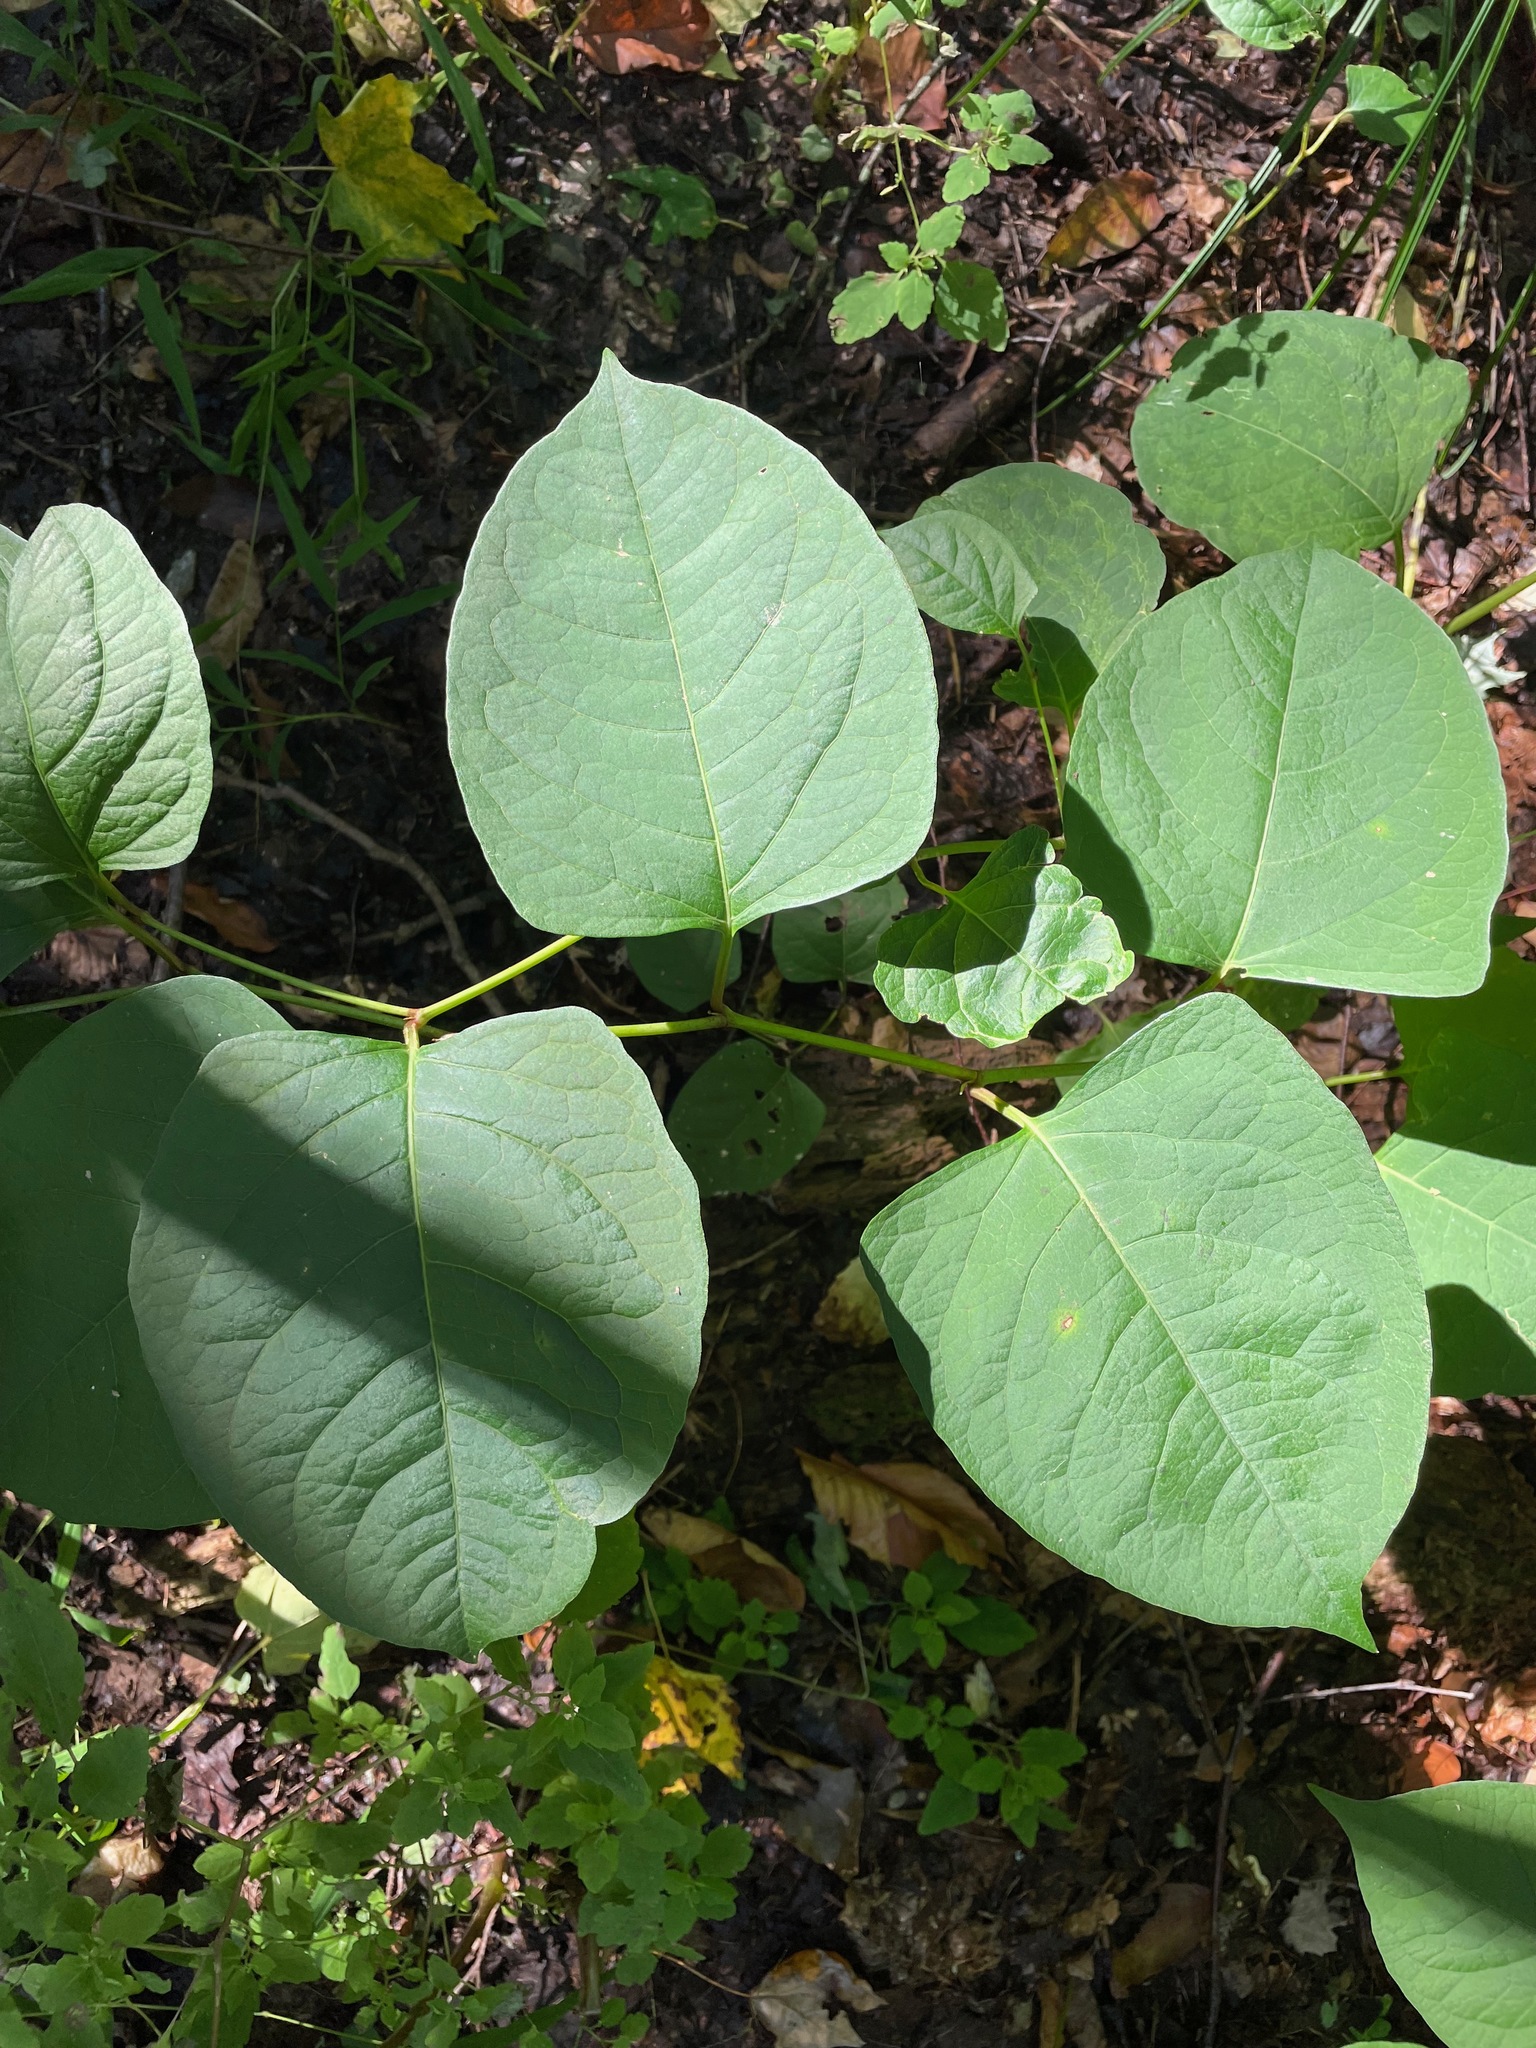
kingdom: Plantae
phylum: Tracheophyta
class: Magnoliopsida
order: Caryophyllales
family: Polygonaceae
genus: Reynoutria
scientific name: Reynoutria japonica
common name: Japanese knotweed
